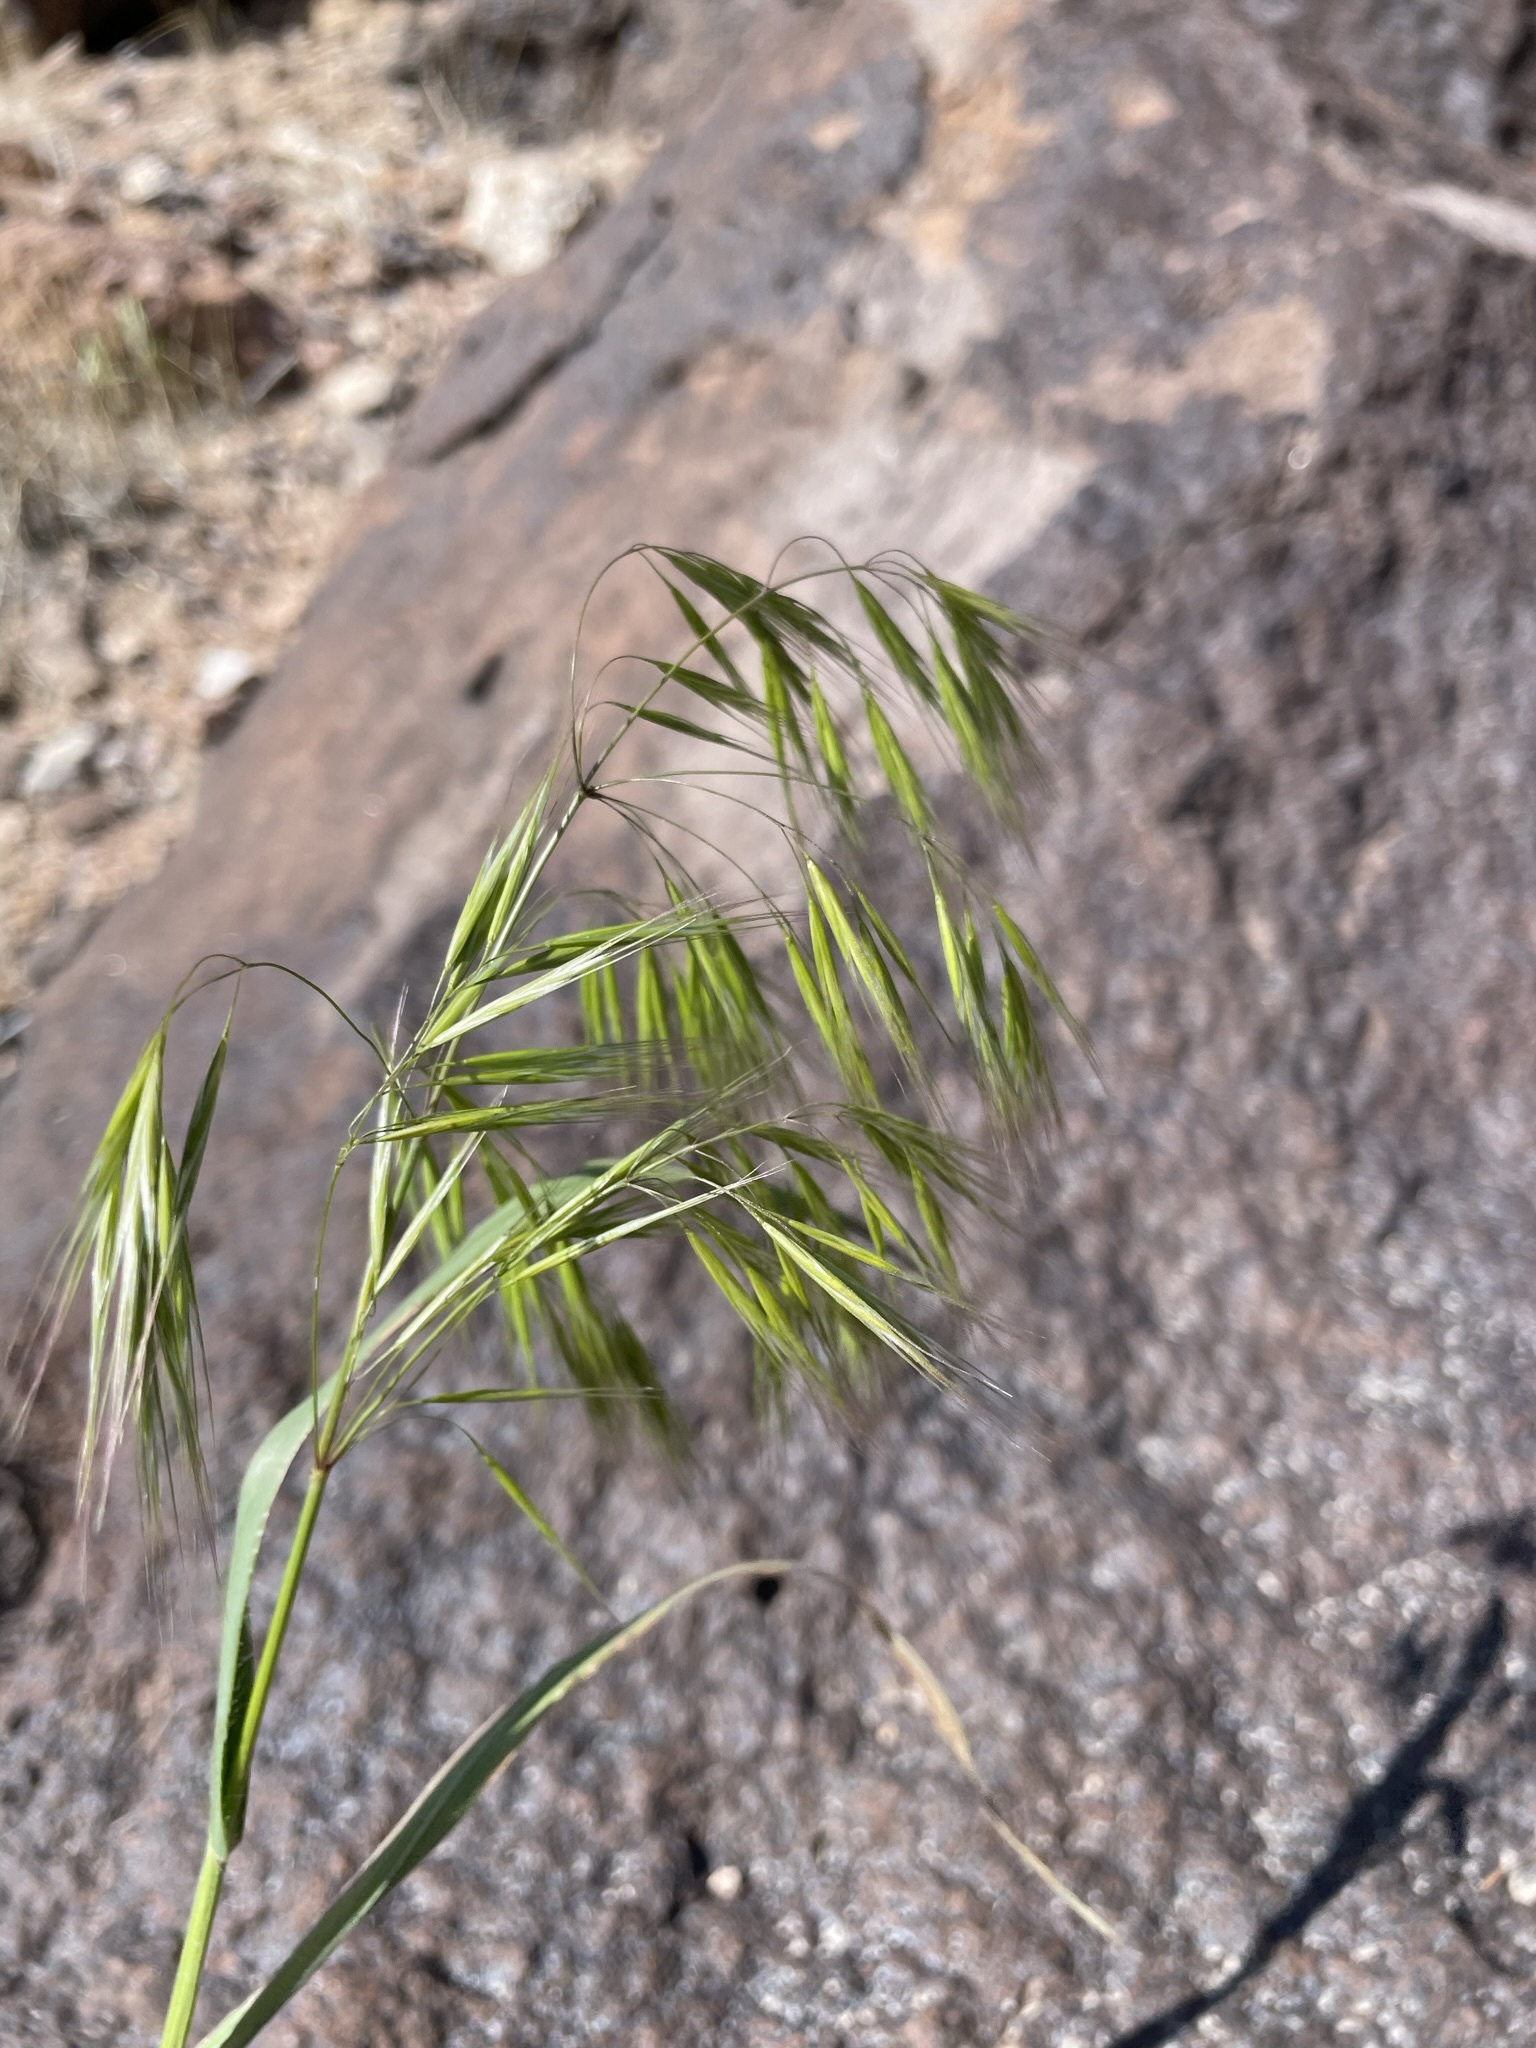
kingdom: Plantae
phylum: Tracheophyta
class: Liliopsida
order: Poales
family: Poaceae
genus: Bromus
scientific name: Bromus tectorum
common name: Cheatgrass
